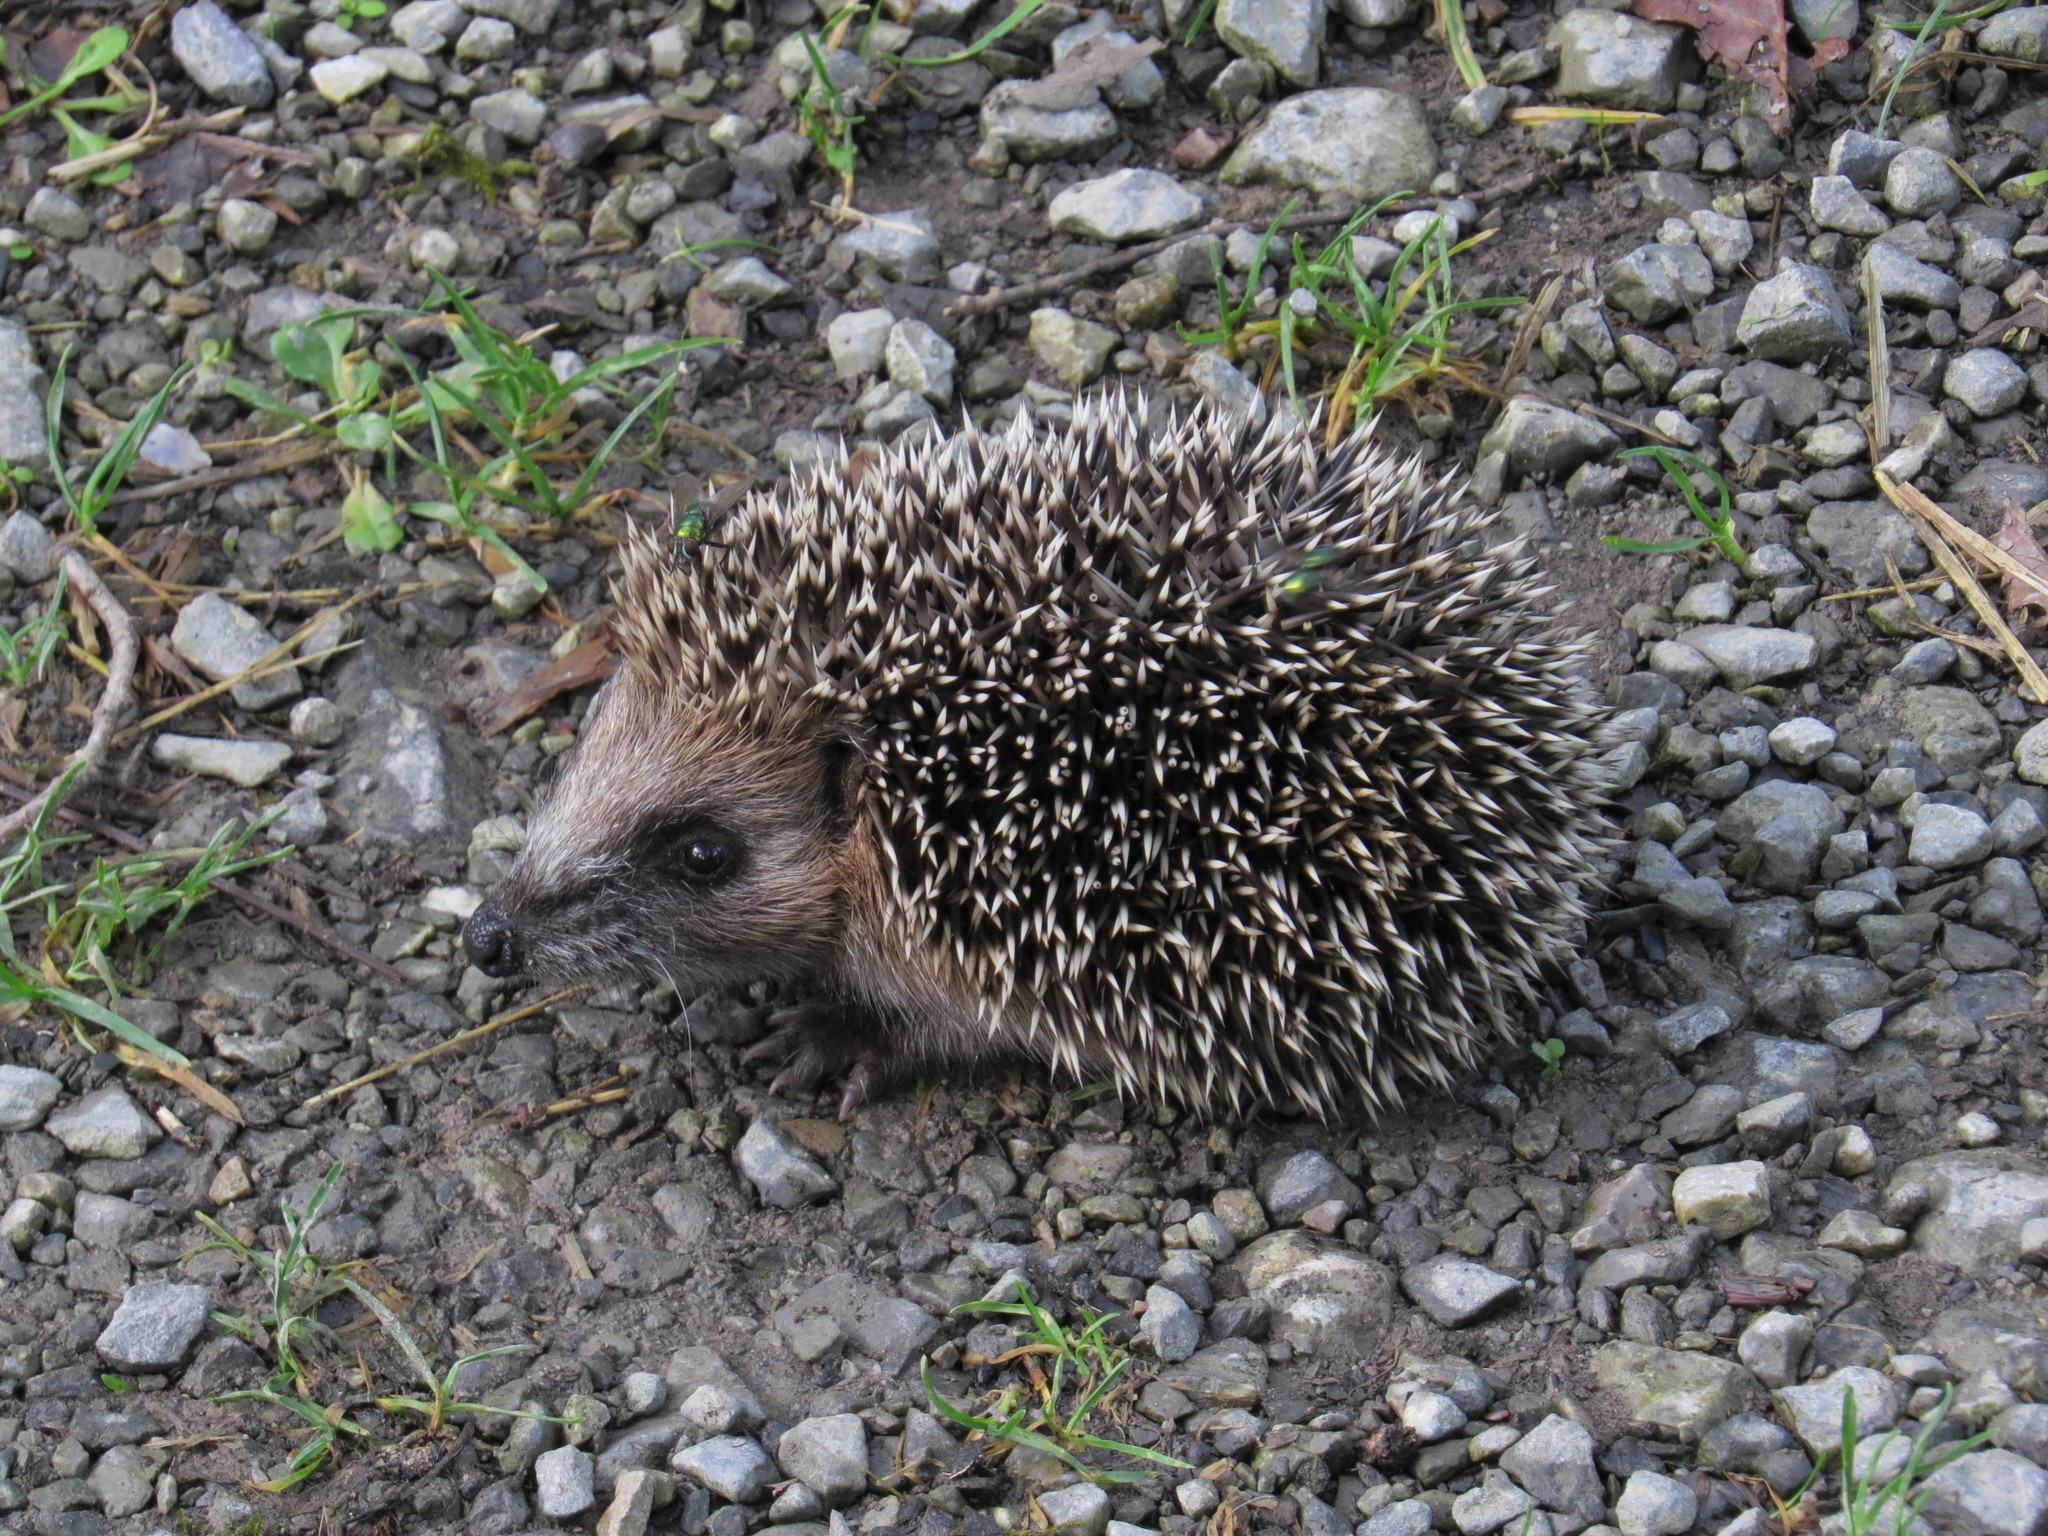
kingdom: Animalia
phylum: Chordata
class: Mammalia
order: Erinaceomorpha
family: Erinaceidae
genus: Erinaceus
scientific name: Erinaceus europaeus
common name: West european hedgehog
